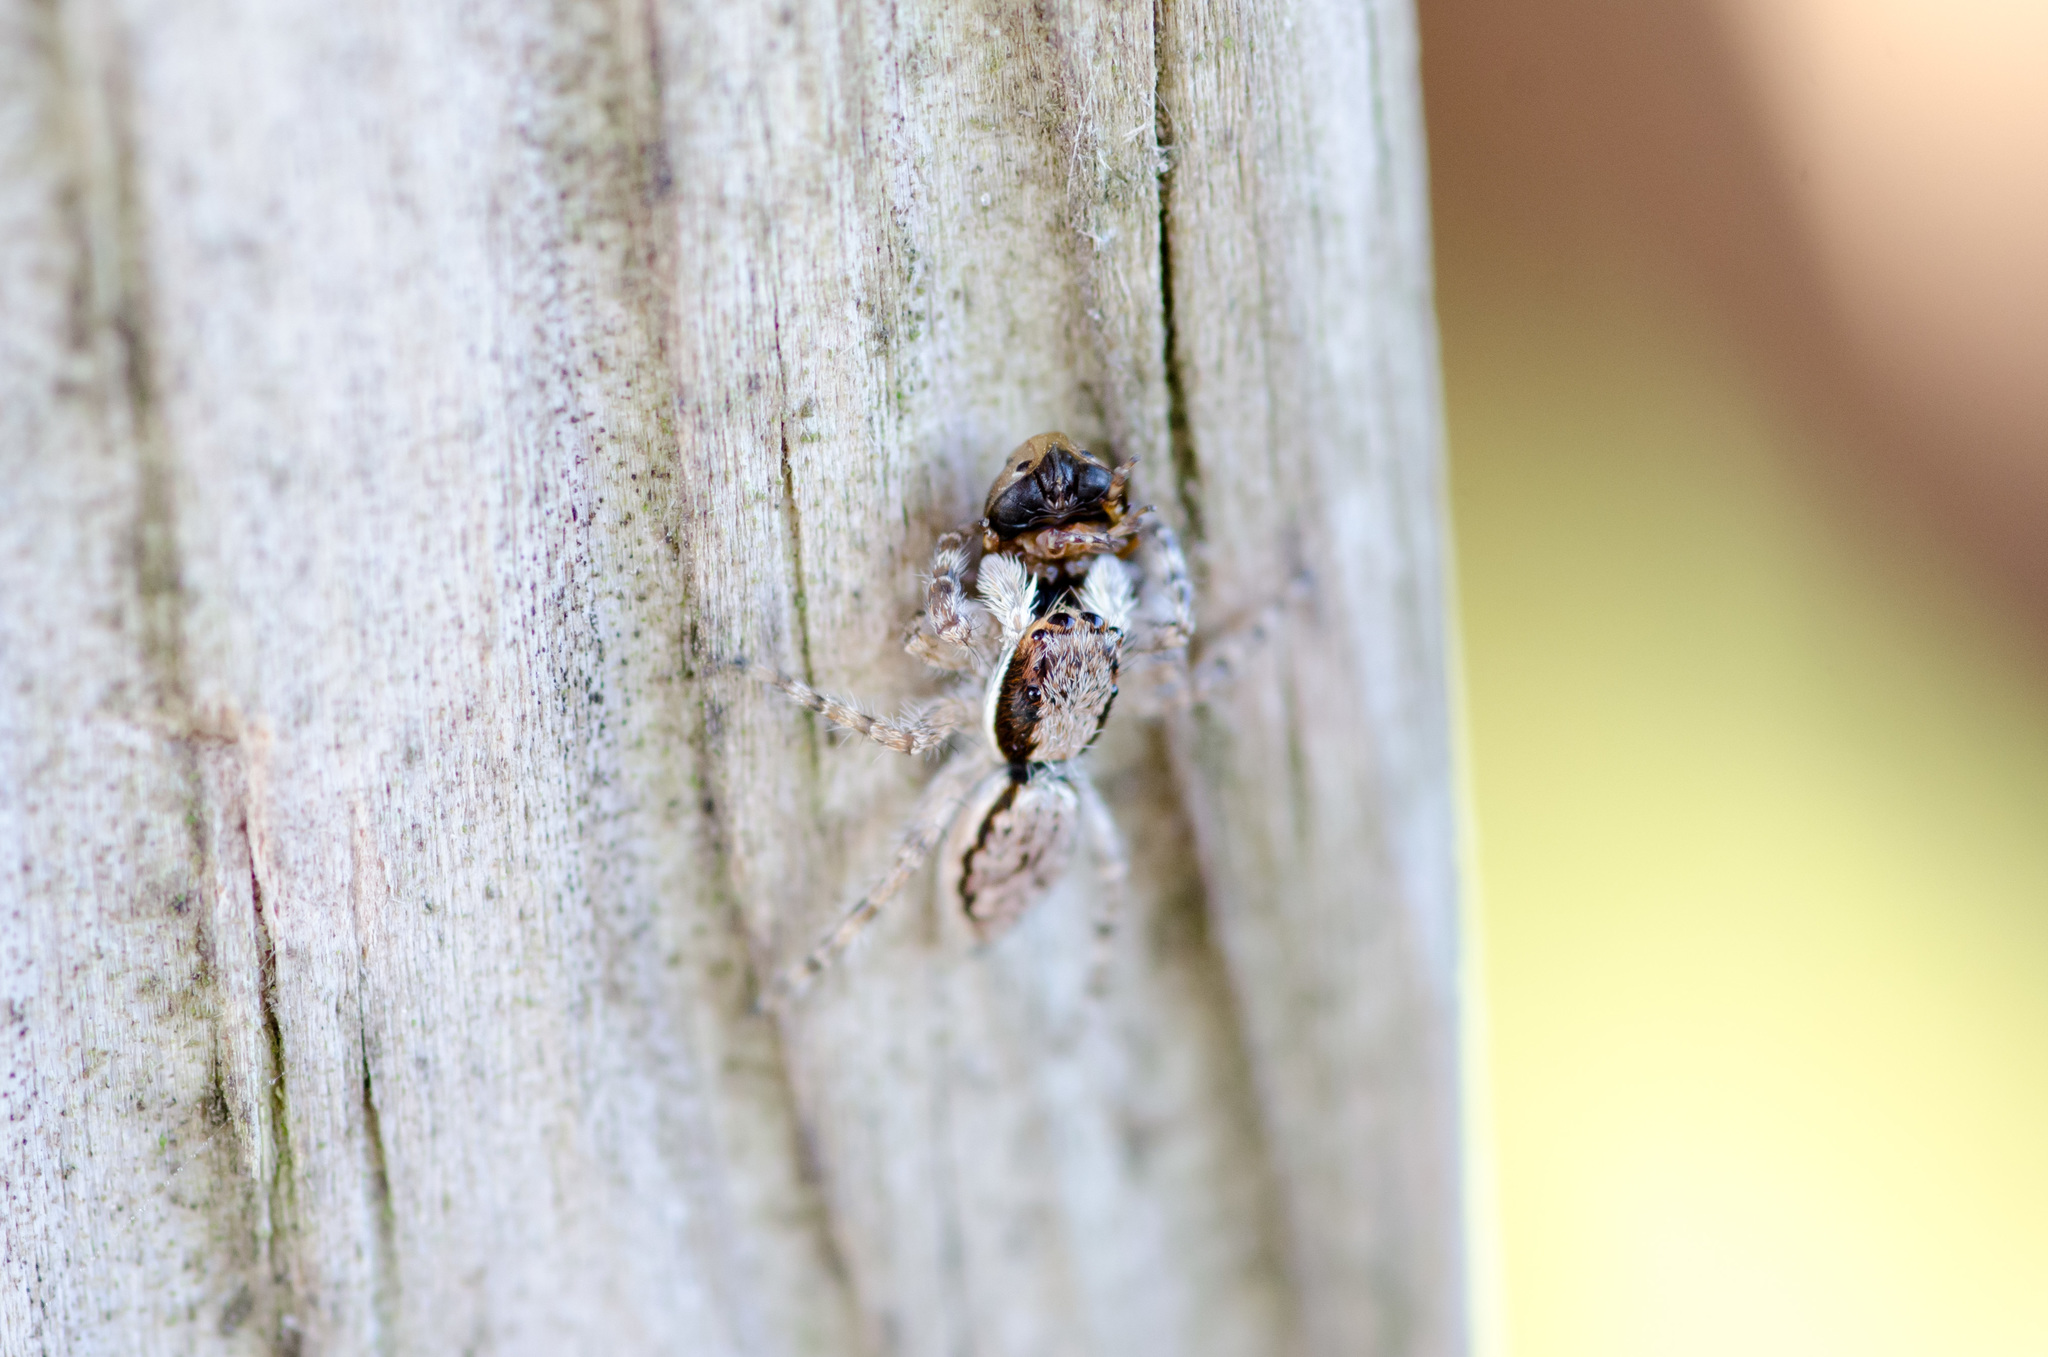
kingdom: Animalia
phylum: Arthropoda
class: Arachnida
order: Araneae
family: Salticidae
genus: Menemerus
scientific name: Menemerus bivittatus
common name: Gray wall jumper
